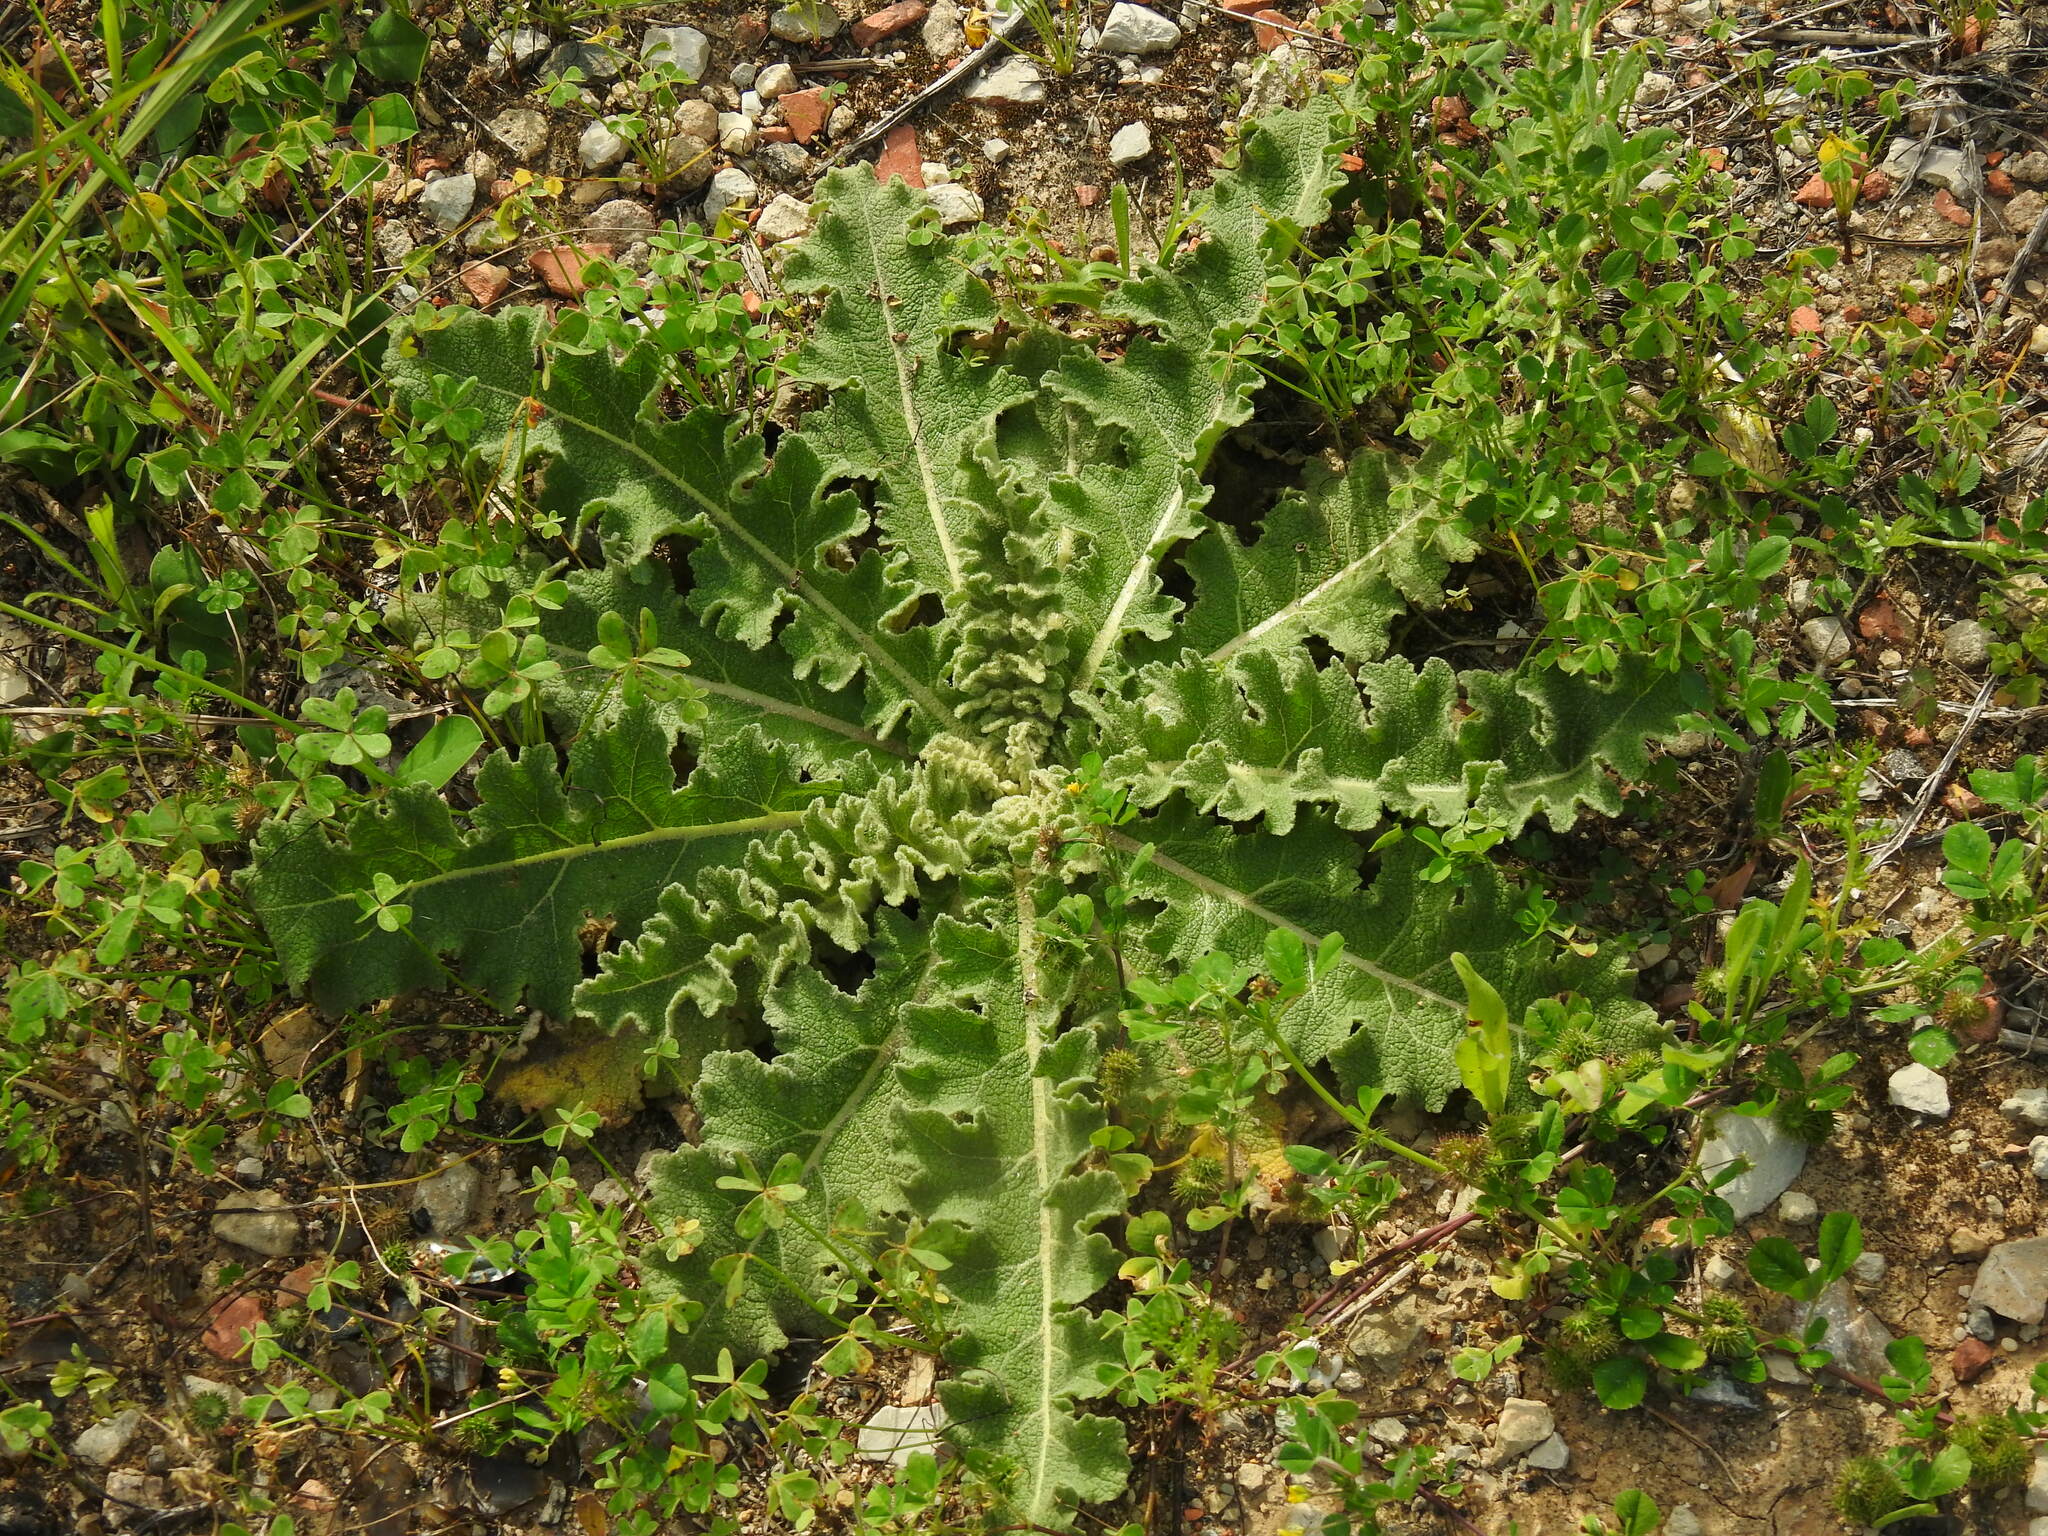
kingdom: Plantae
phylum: Tracheophyta
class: Magnoliopsida
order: Lamiales
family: Scrophulariaceae
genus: Verbascum
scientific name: Verbascum sinuatum
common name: Wavyleaf mullein
